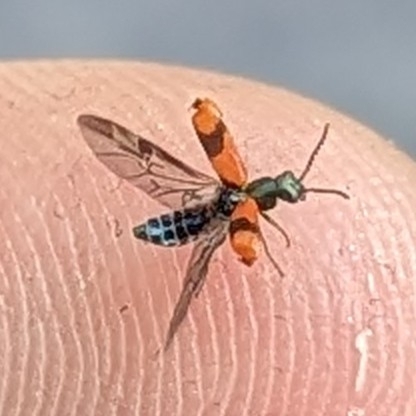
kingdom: Animalia
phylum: Arthropoda
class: Insecta
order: Coleoptera
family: Melyridae
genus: Anthocomus
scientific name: Anthocomus equestris
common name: Black-banded soft-winged flower beetle
